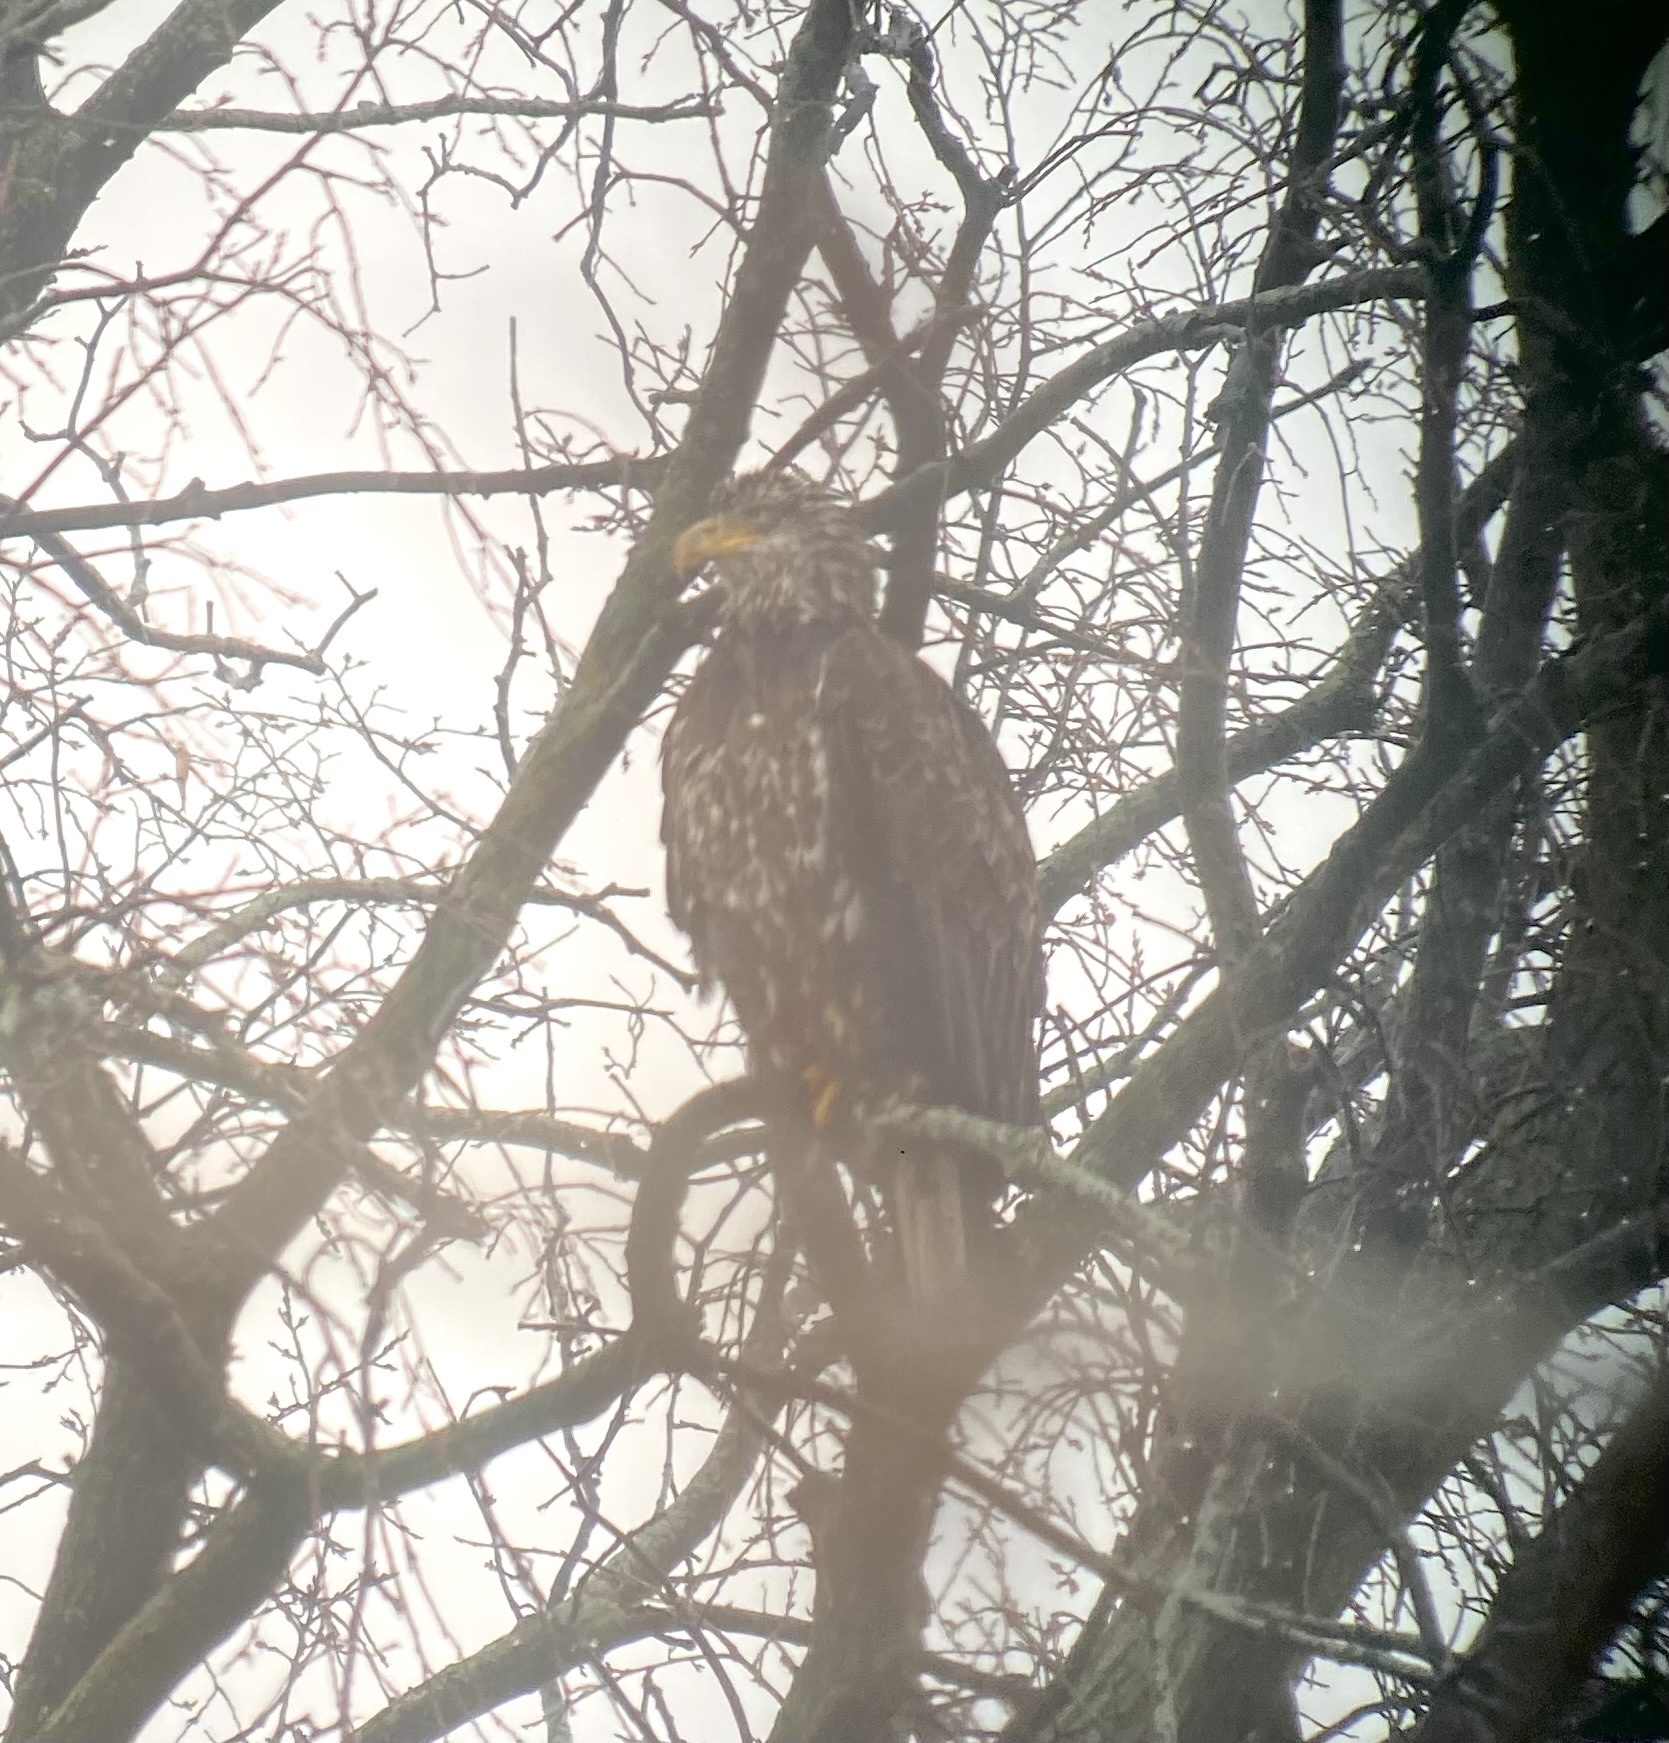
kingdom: Animalia
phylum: Chordata
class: Aves
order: Accipitriformes
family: Accipitridae
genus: Haliaeetus
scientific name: Haliaeetus leucocephalus
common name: Bald eagle
